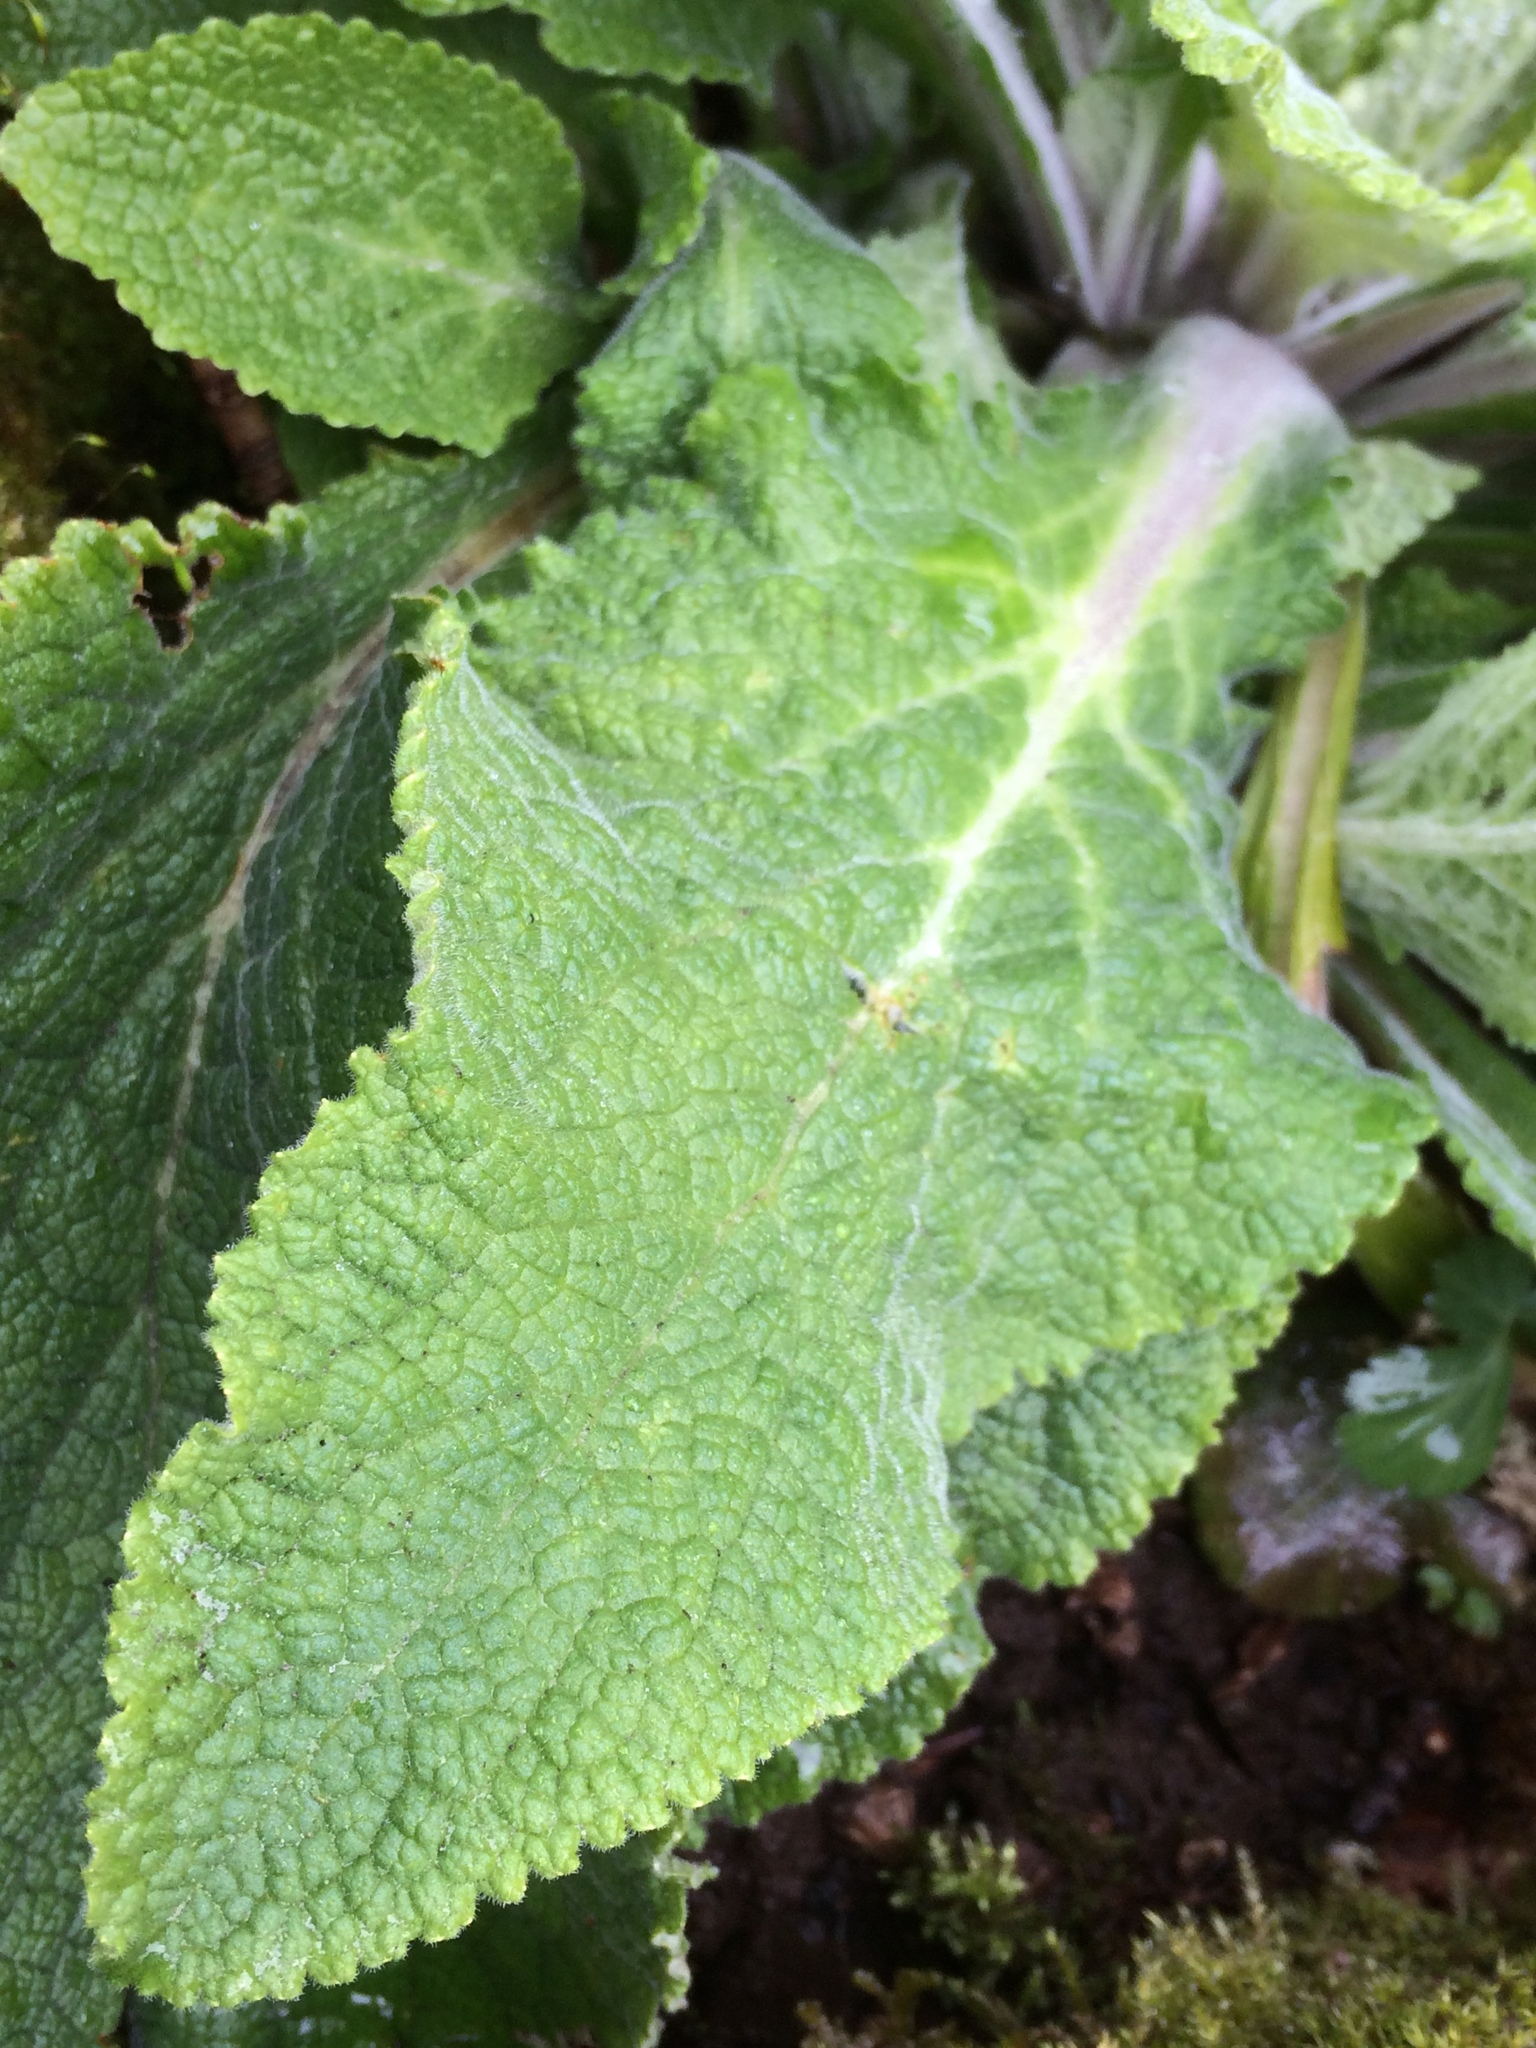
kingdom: Plantae
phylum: Tracheophyta
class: Magnoliopsida
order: Lamiales
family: Plantaginaceae
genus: Digitalis
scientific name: Digitalis purpurea
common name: Foxglove
